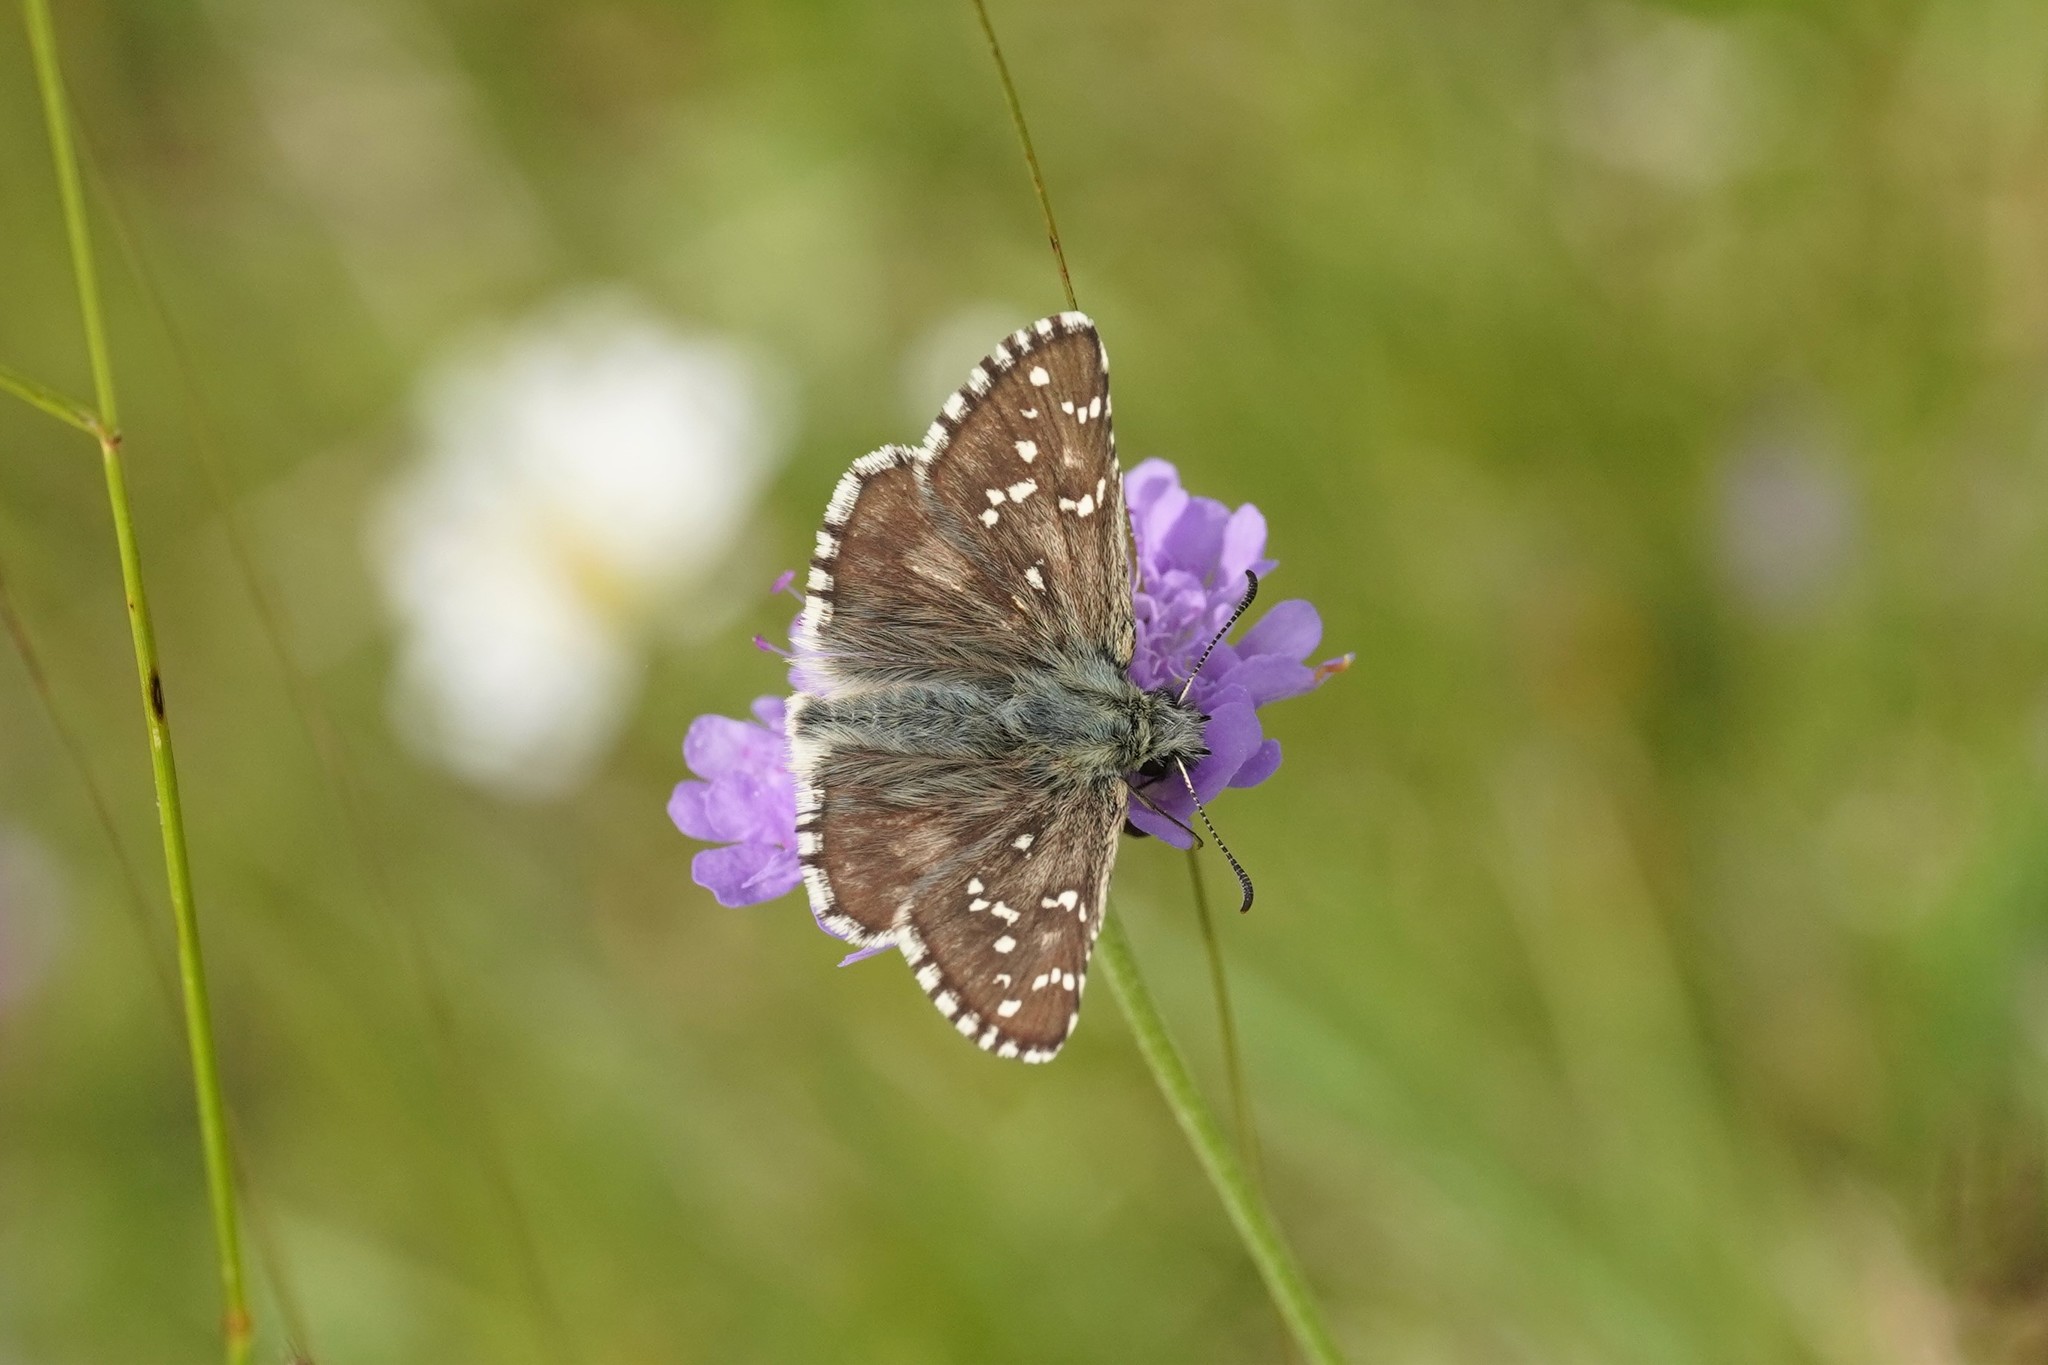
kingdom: Animalia
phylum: Arthropoda
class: Insecta
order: Lepidoptera
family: Hesperiidae
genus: Pyrgus
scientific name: Pyrgus alveus
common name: Large grizzled skipper
